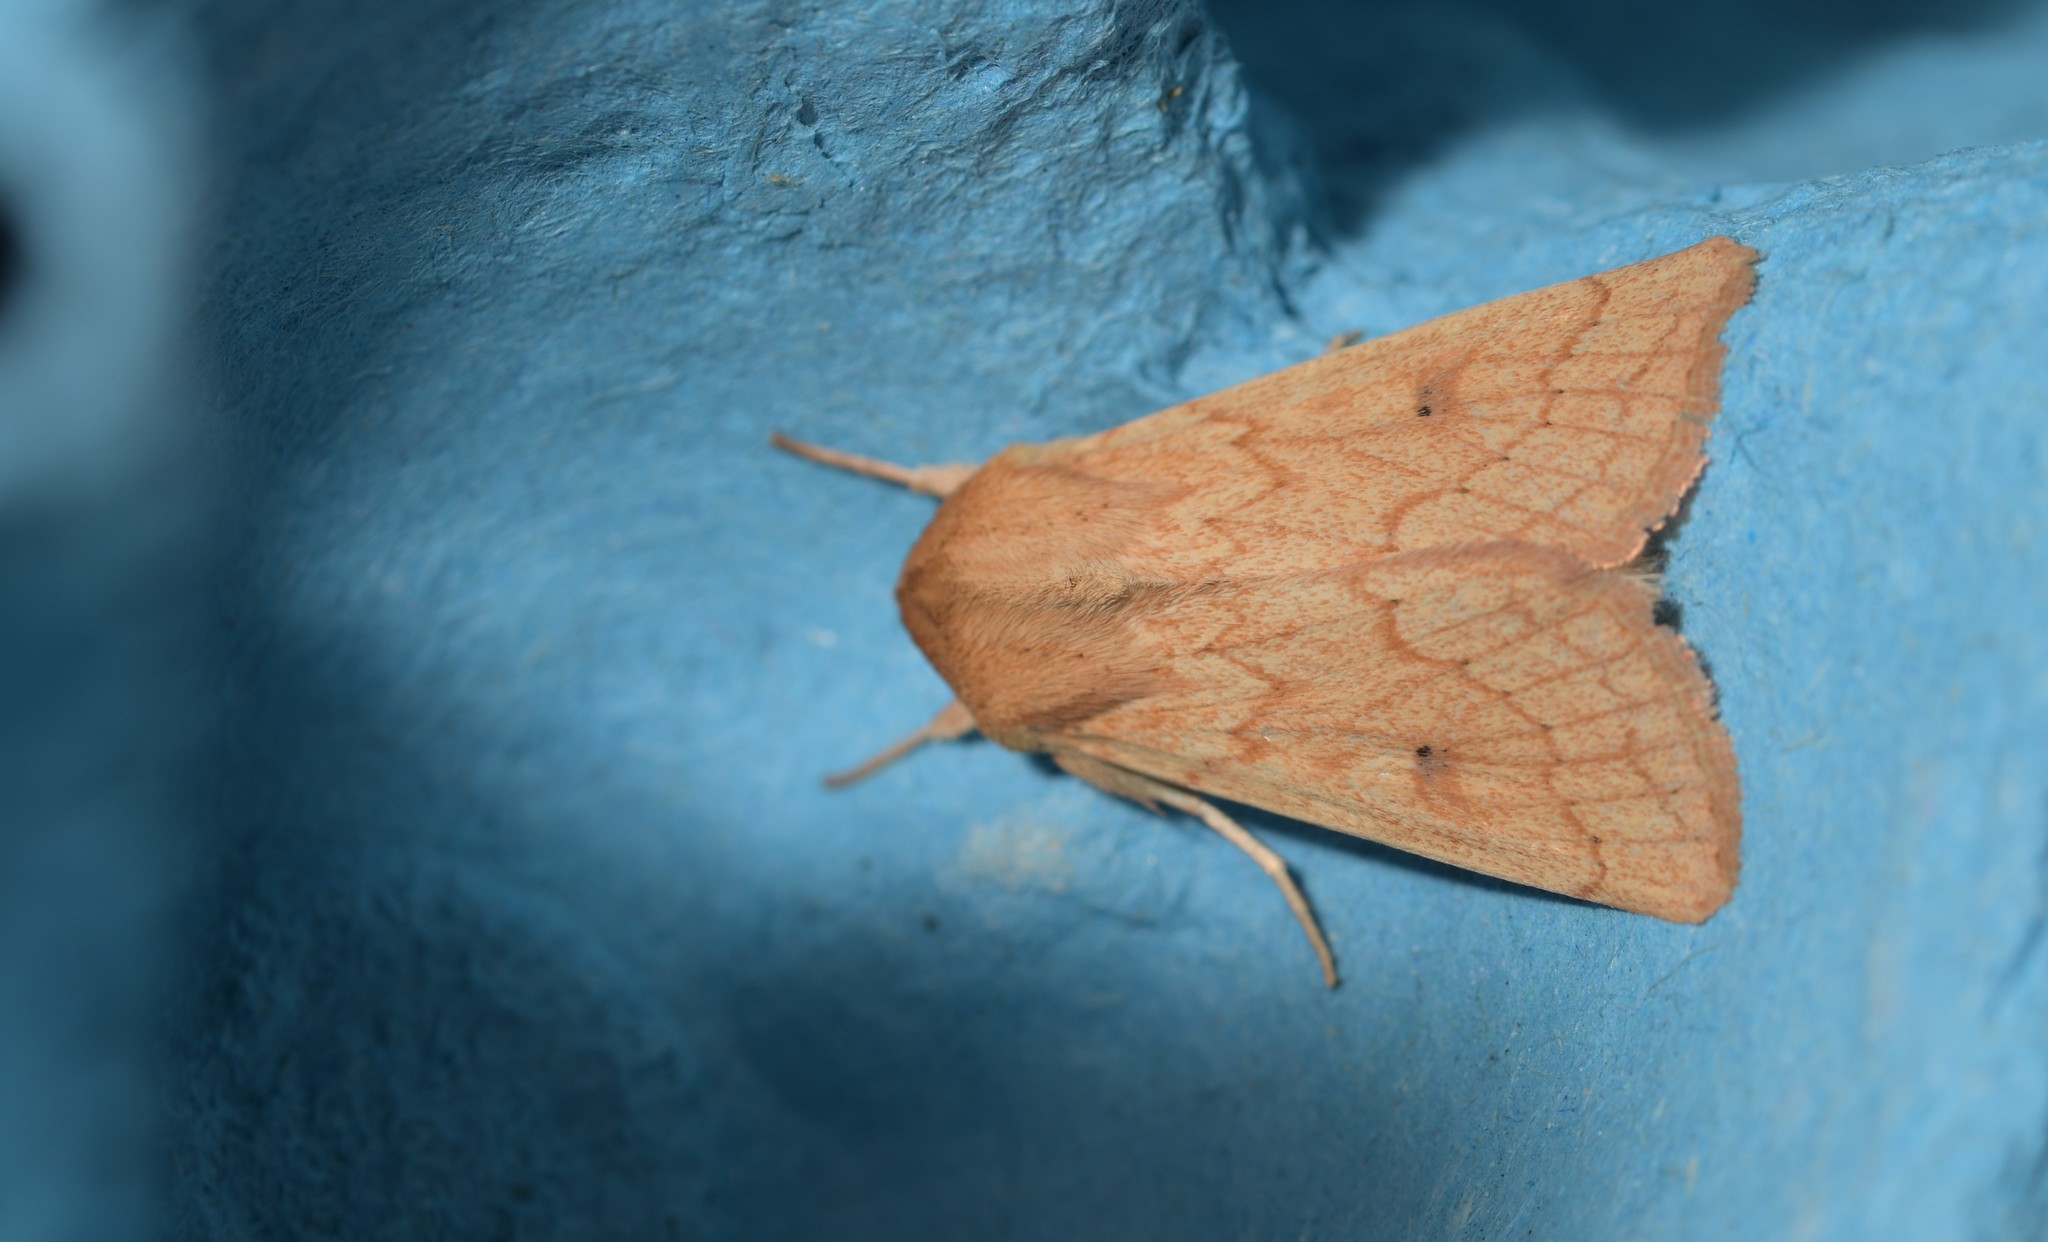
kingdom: Animalia
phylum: Arthropoda
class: Insecta
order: Lepidoptera
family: Noctuidae
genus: Mythimna
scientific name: Mythimna vitellina
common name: Delicate
